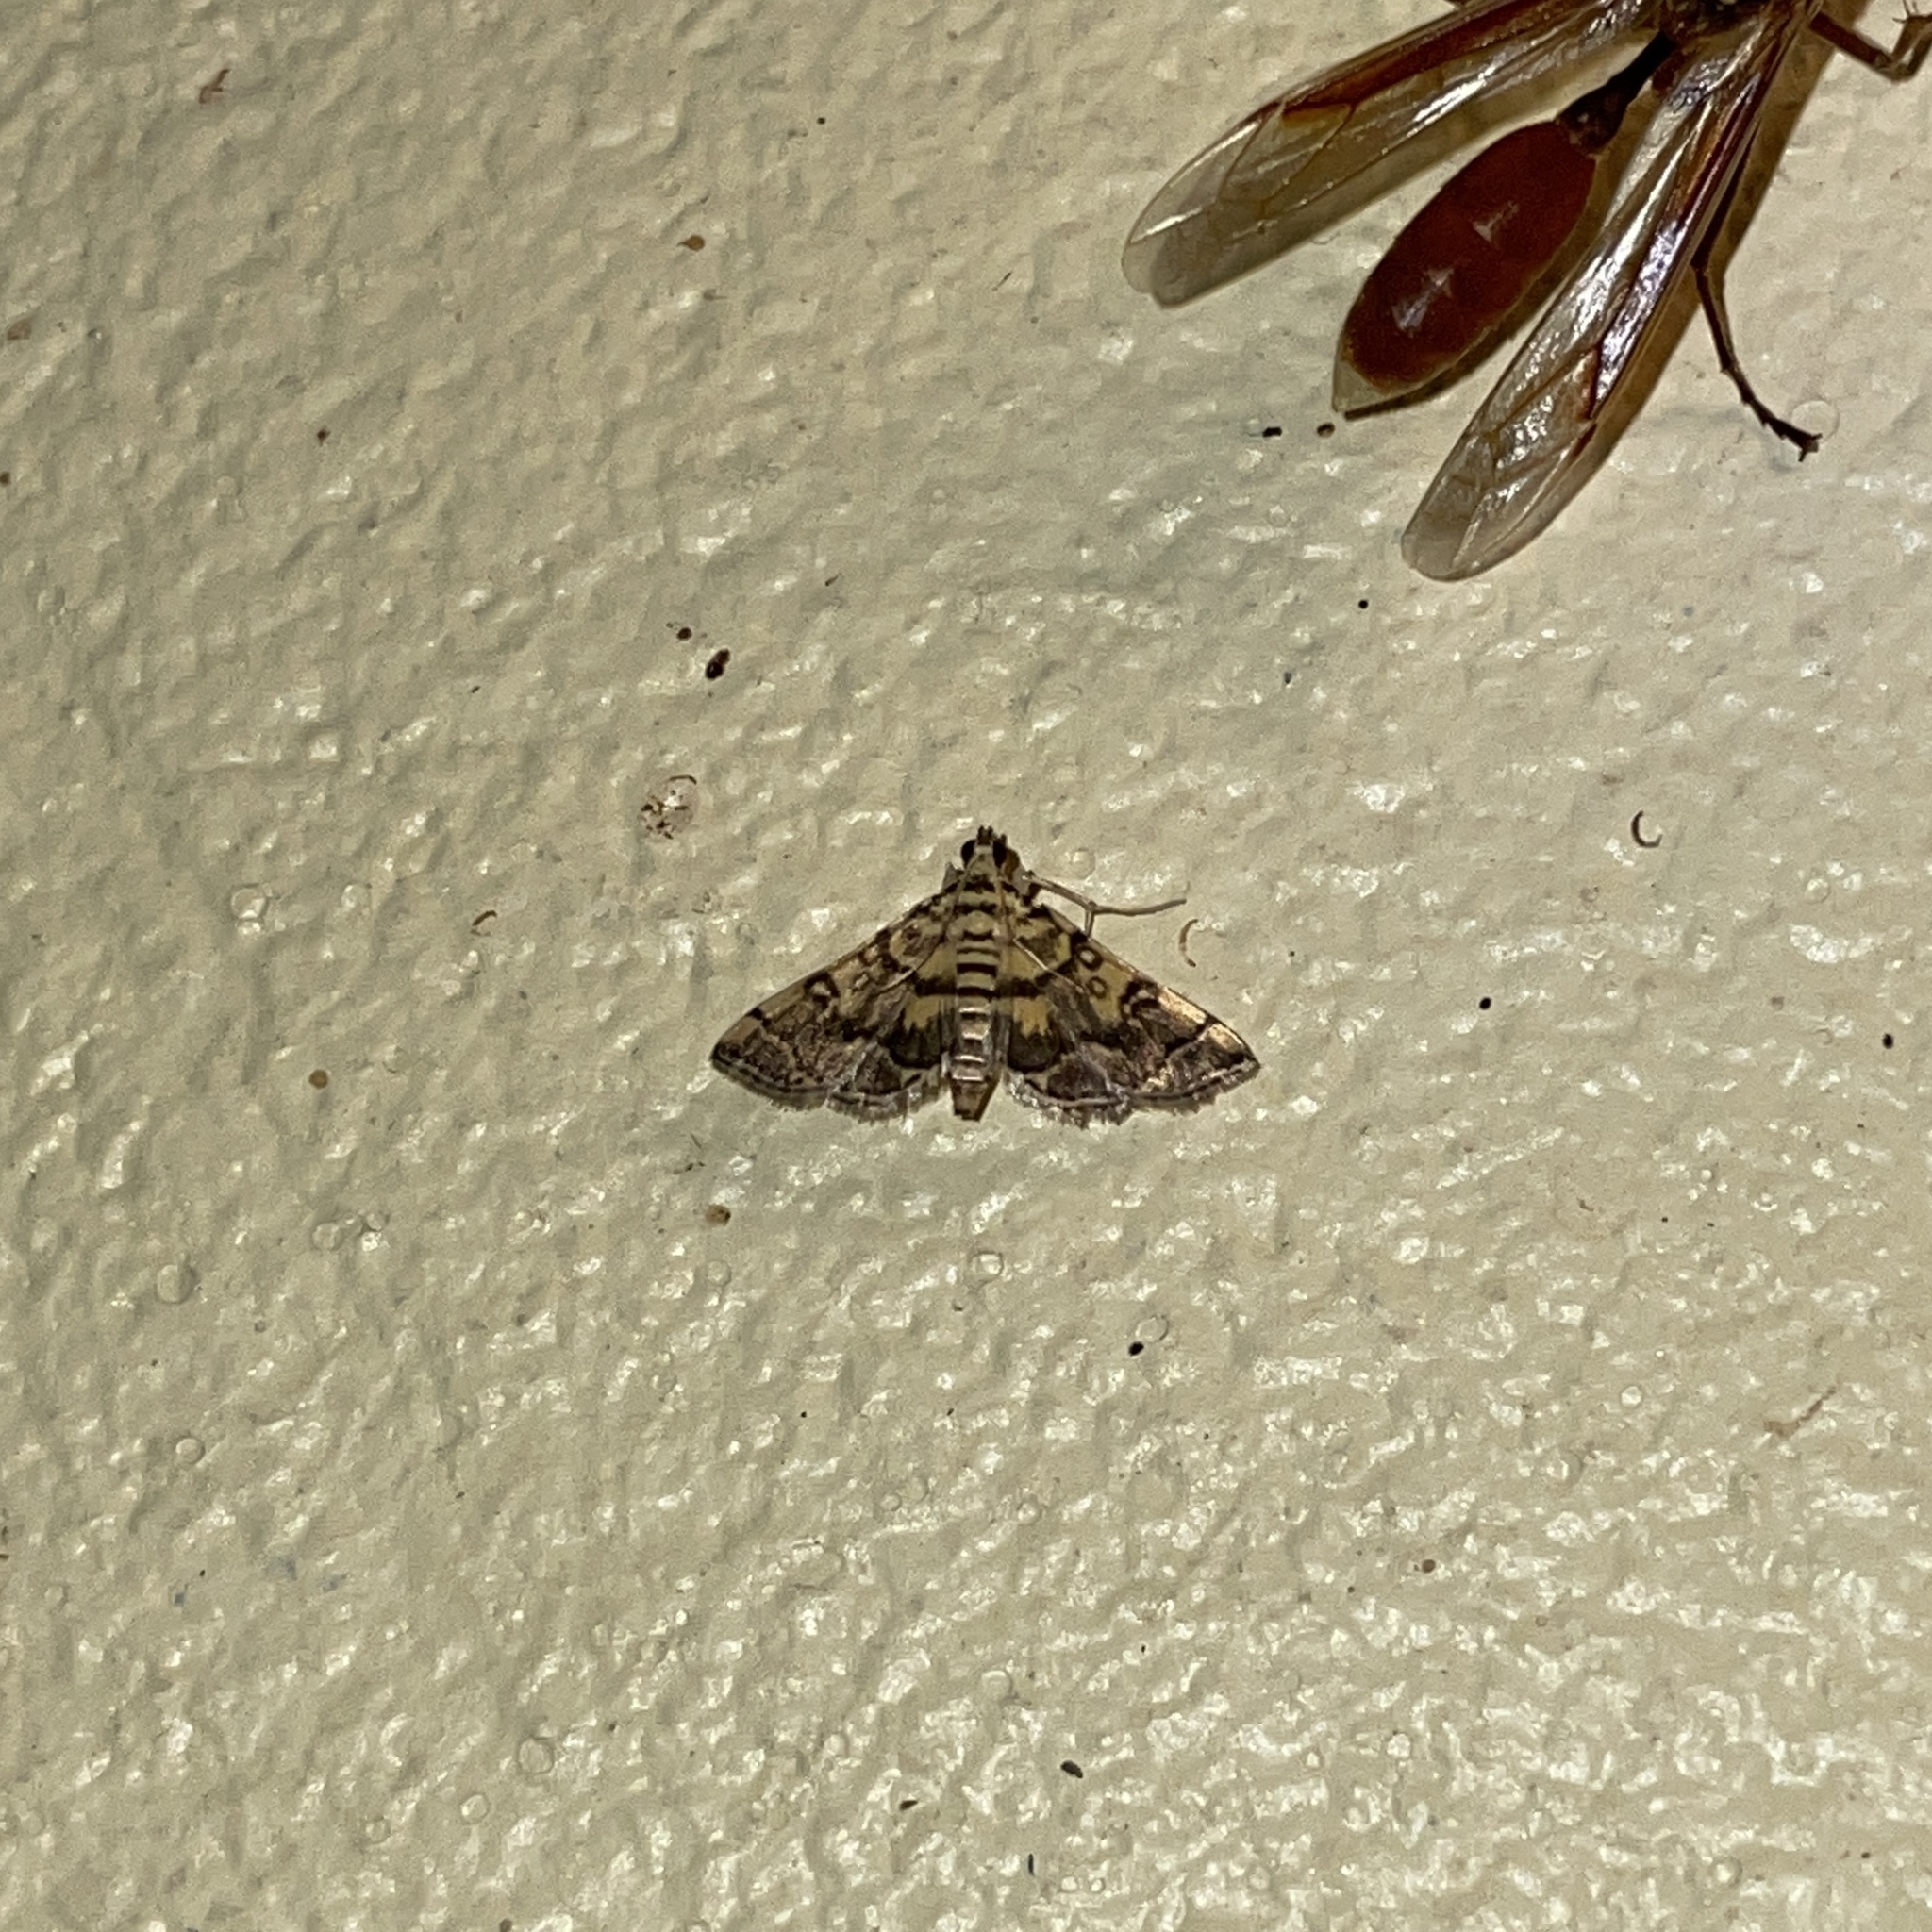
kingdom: Animalia
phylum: Arthropoda
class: Insecta
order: Lepidoptera
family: Crambidae
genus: Apogeshna
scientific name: Apogeshna stenialis
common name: Checkered apogeshna moth
